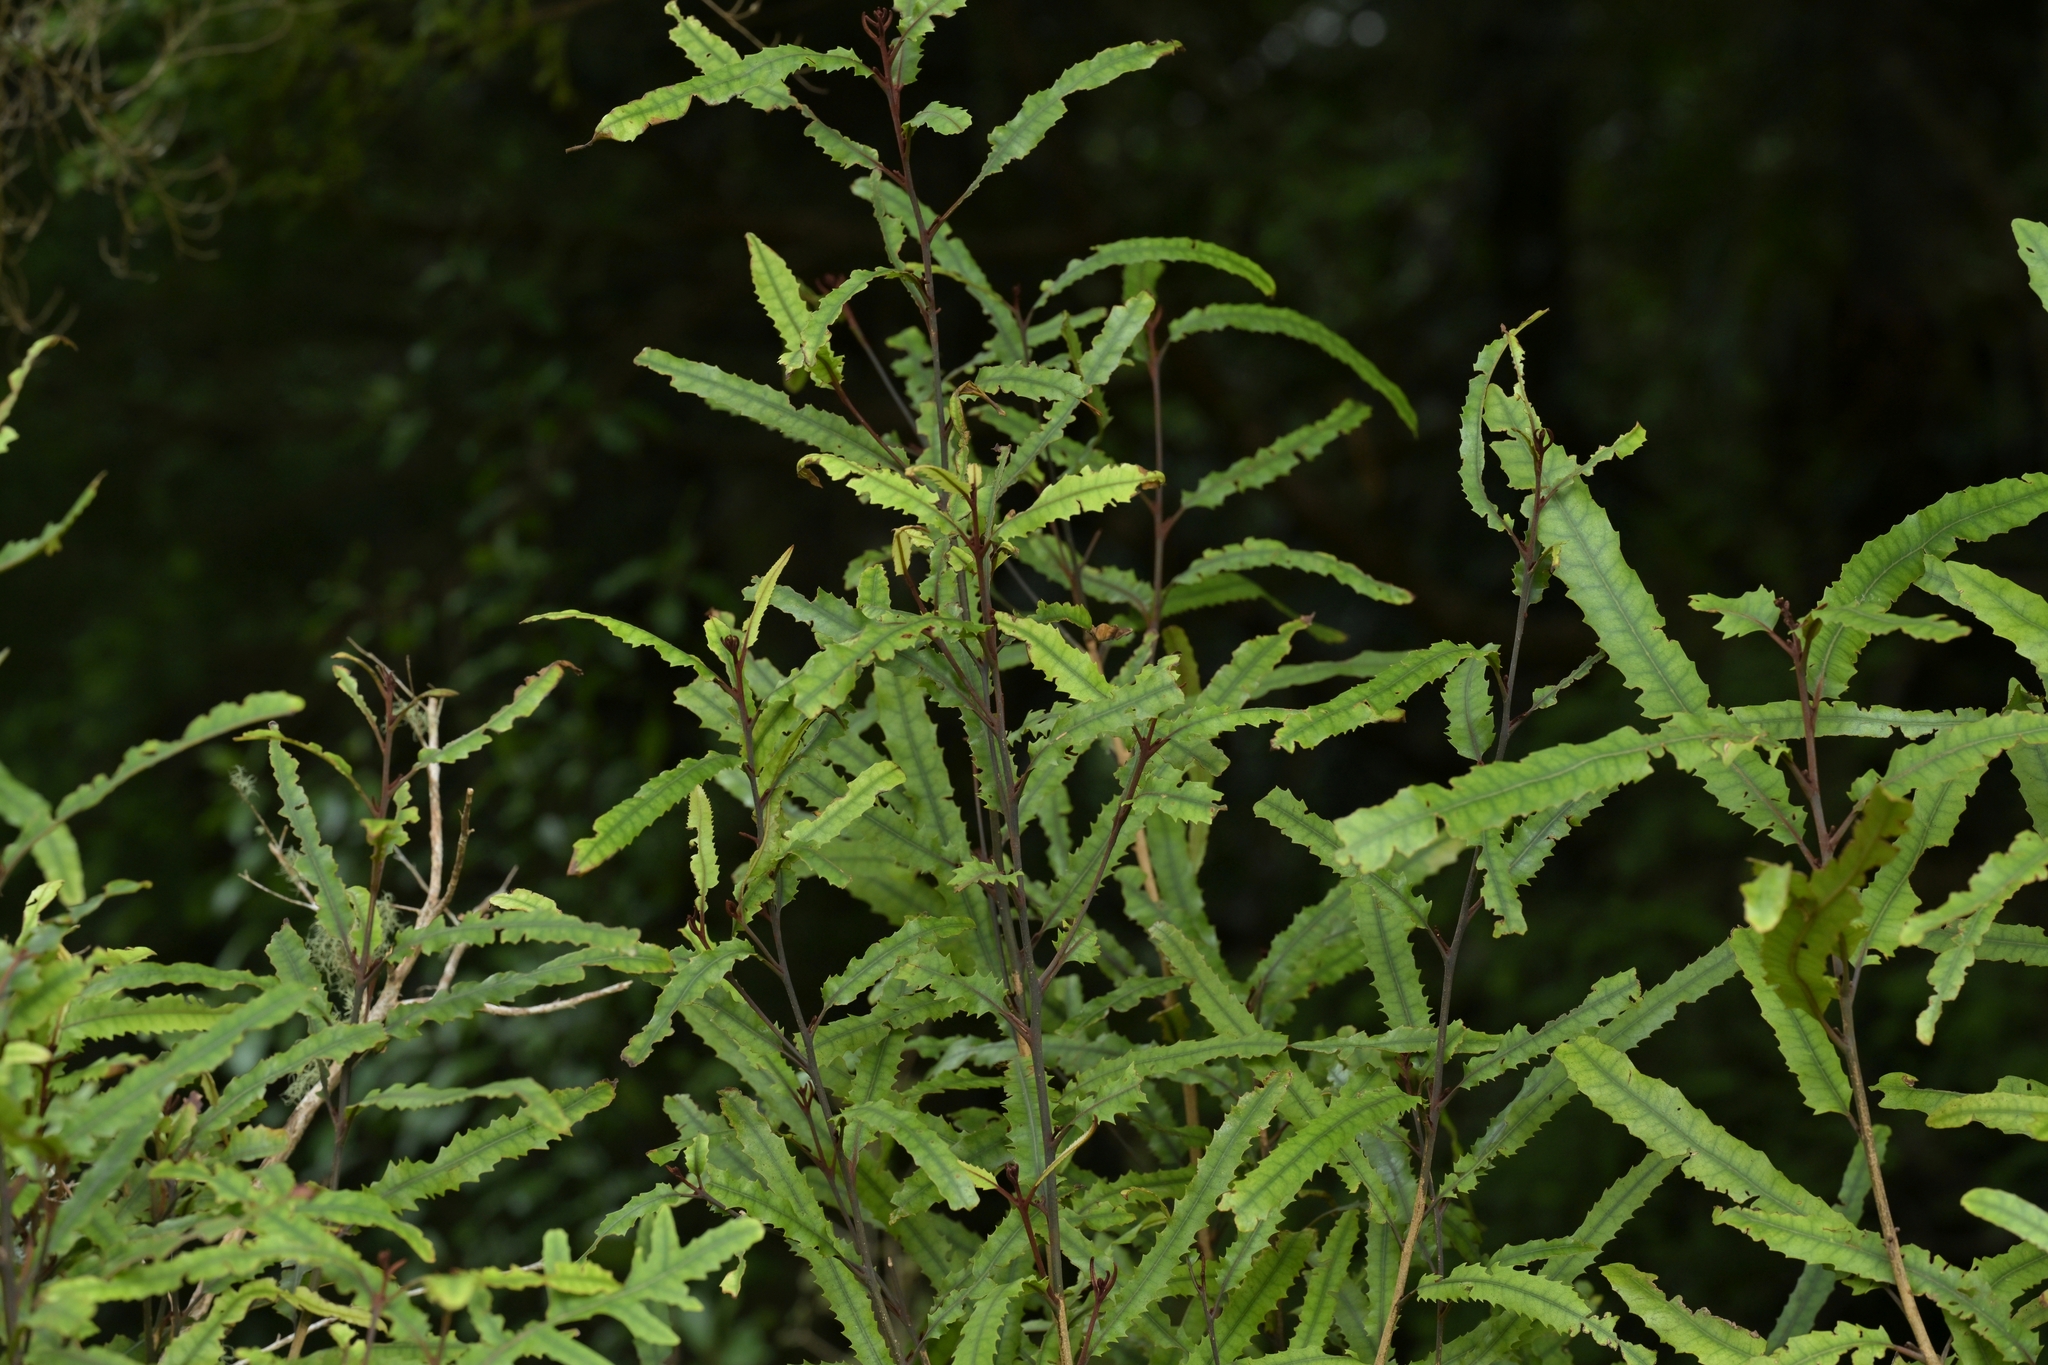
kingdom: Plantae
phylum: Tracheophyta
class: Magnoliopsida
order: Proteales
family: Proteaceae
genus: Knightia
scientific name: Knightia excelsa
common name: New zealand-honeysuckle
